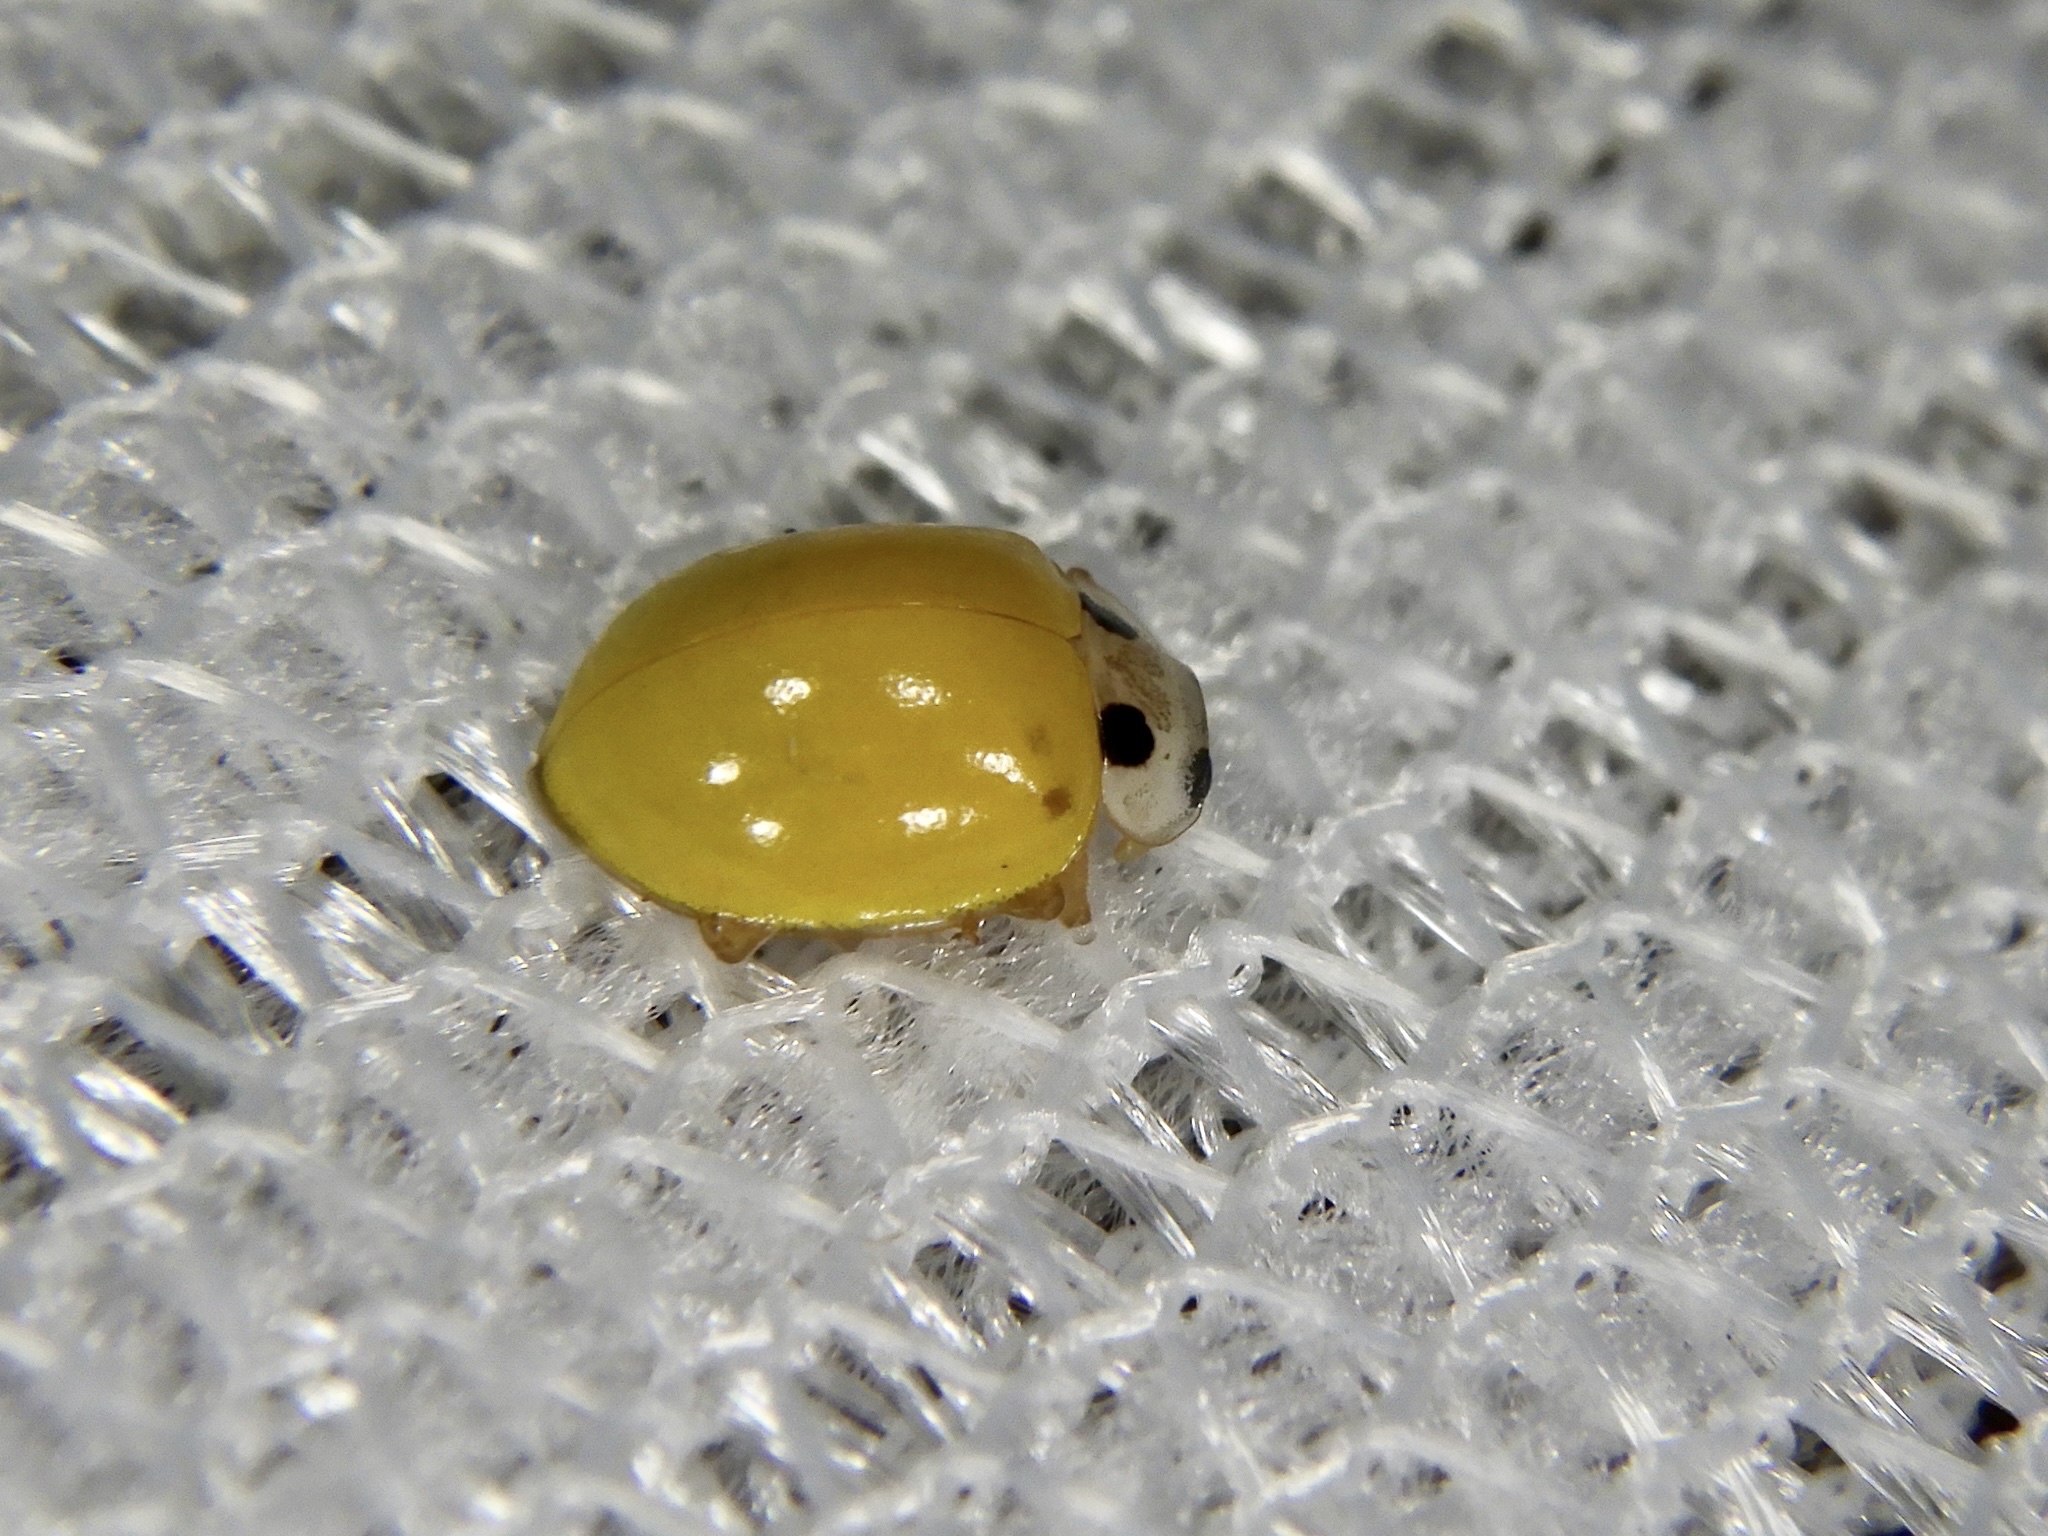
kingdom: Animalia
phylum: Arthropoda
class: Insecta
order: Coleoptera
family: Coccinellidae
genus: Illeis
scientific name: Illeis koebelei
